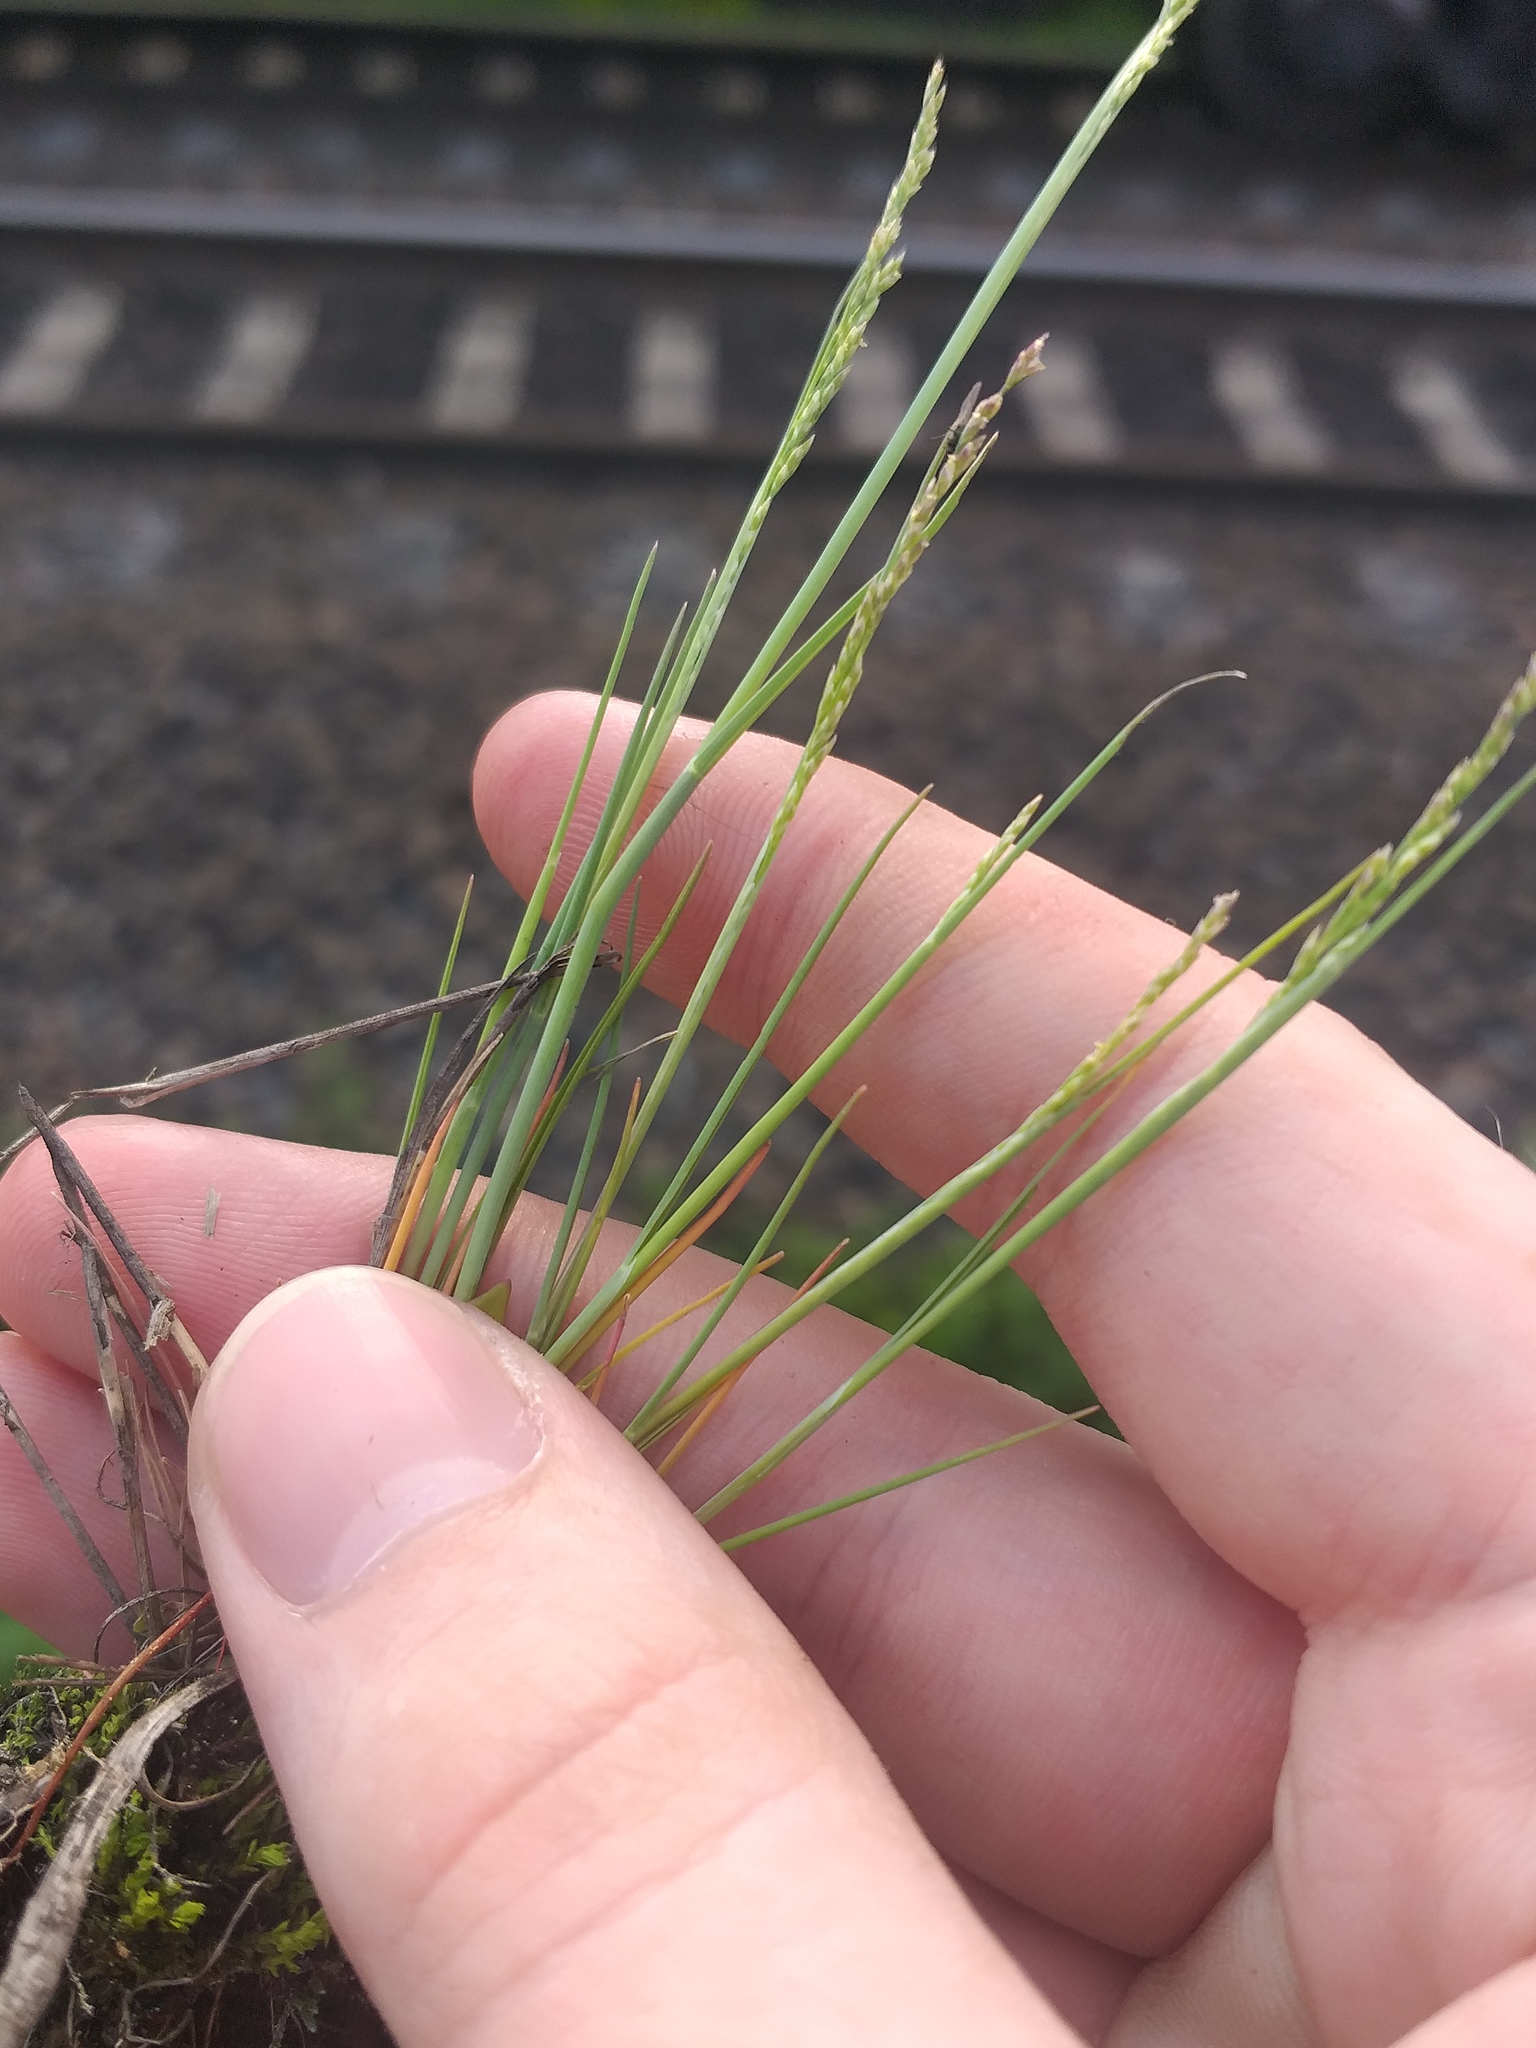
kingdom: Plantae
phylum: Tracheophyta
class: Liliopsida
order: Poales
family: Poaceae
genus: Puccinellia
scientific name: Puccinellia distans
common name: Weeping alkaligrass
